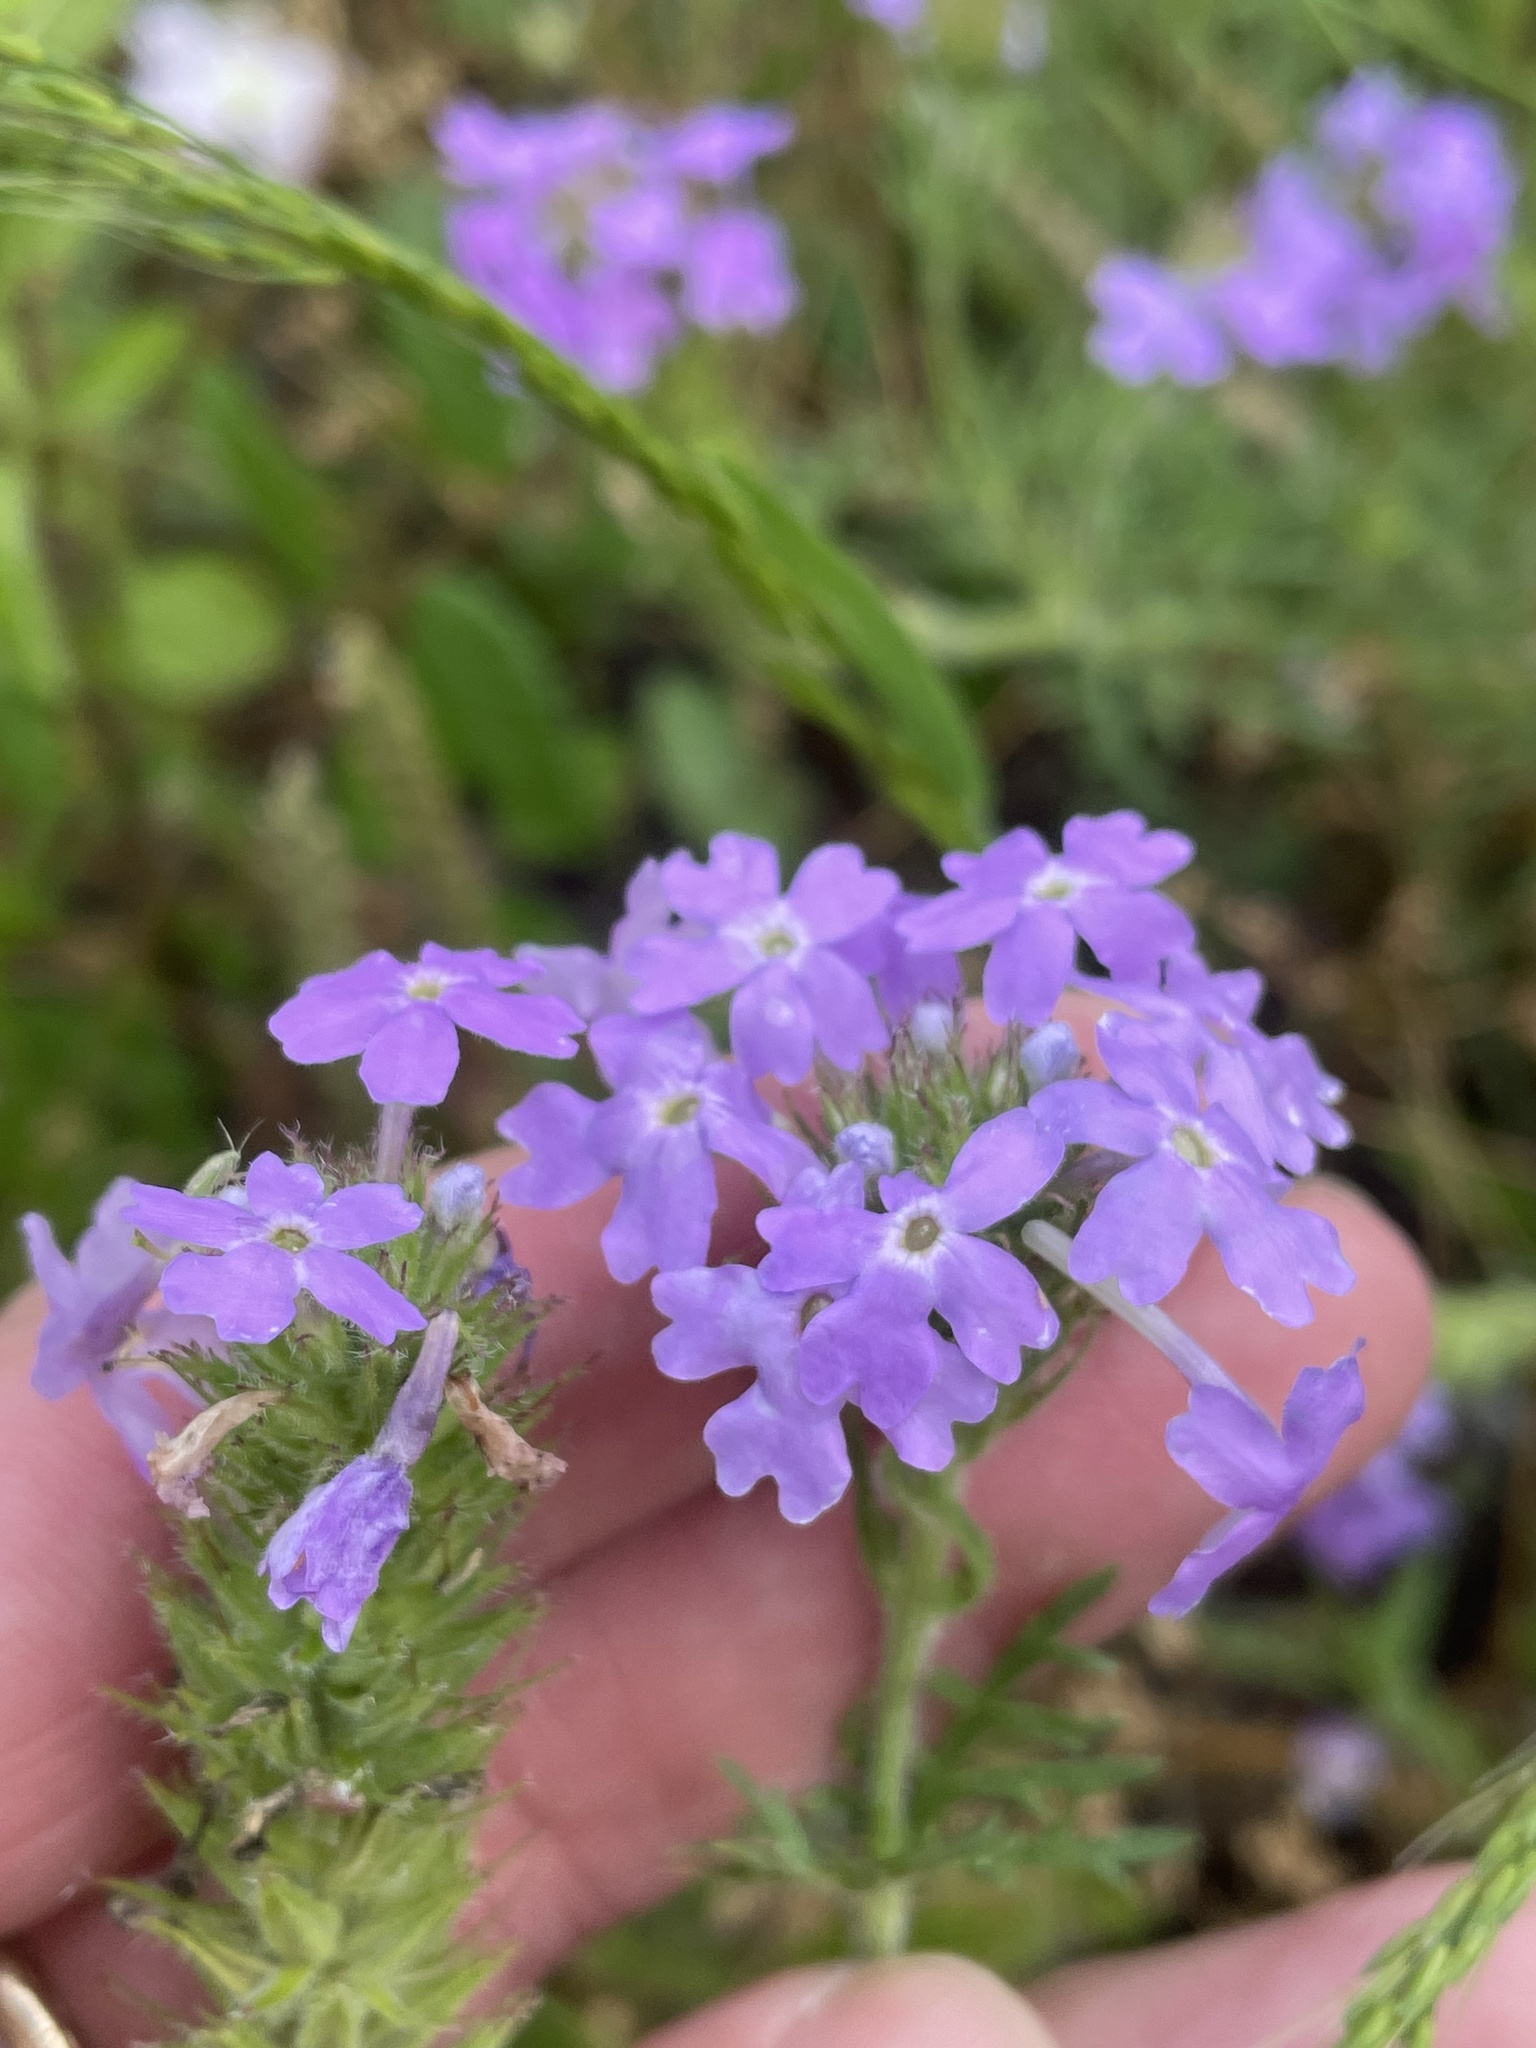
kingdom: Plantae
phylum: Tracheophyta
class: Magnoliopsida
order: Lamiales
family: Verbenaceae
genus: Verbena
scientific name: Verbena bipinnatifida
